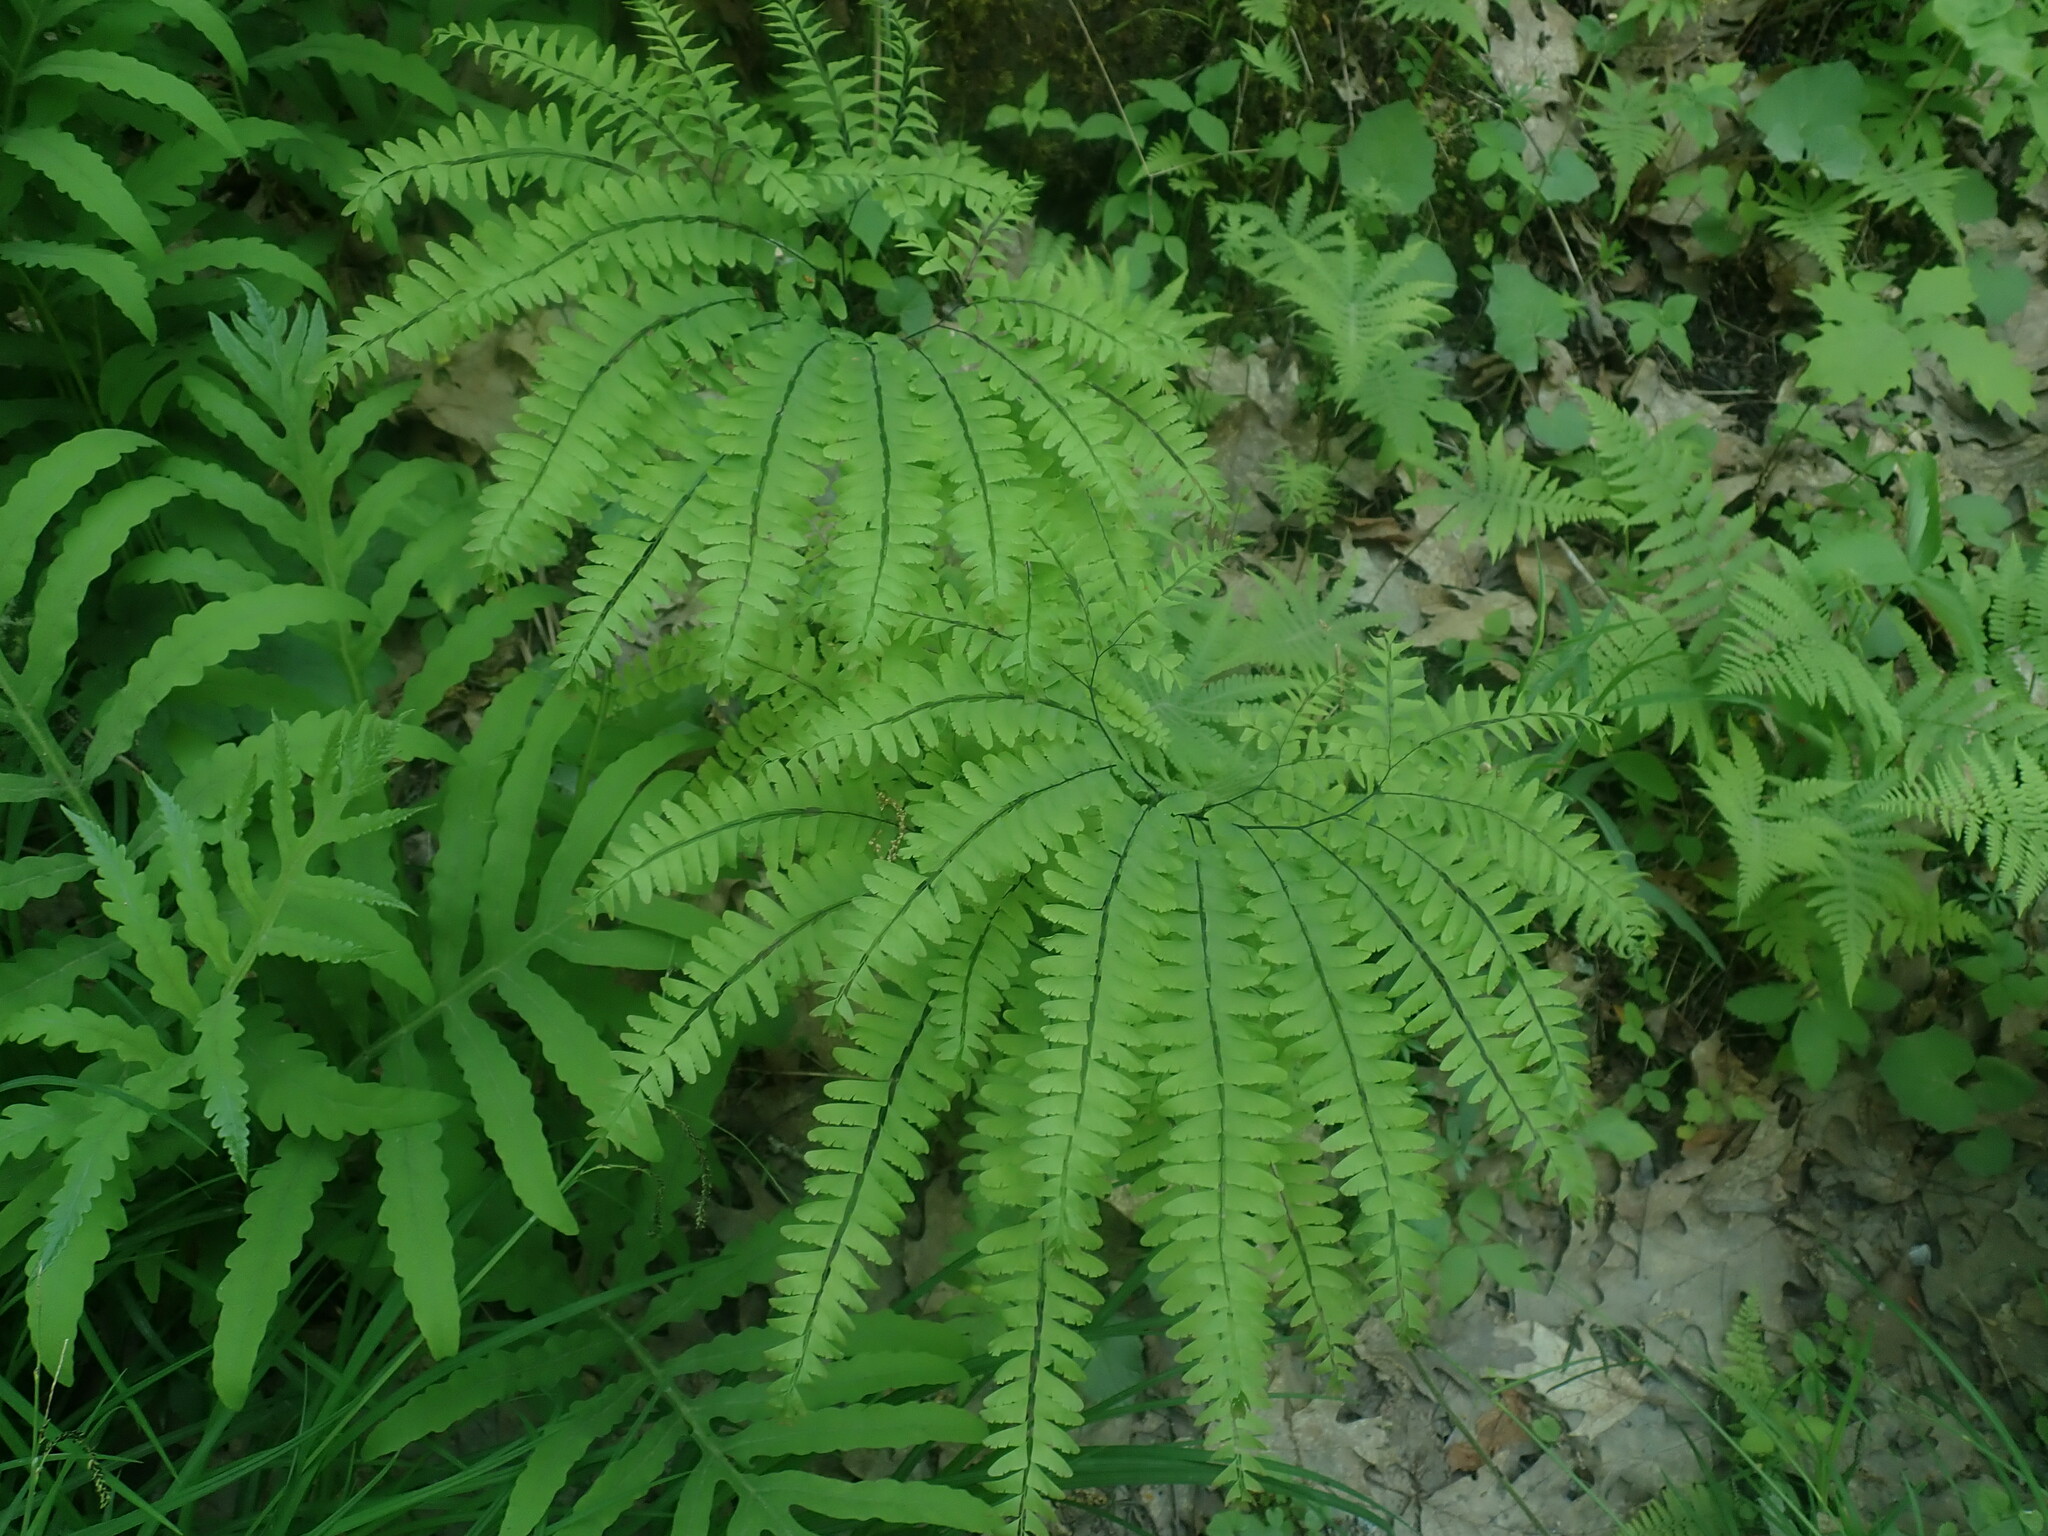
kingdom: Plantae
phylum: Tracheophyta
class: Polypodiopsida
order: Polypodiales
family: Pteridaceae
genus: Adiantum
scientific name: Adiantum pedatum
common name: Five-finger fern
